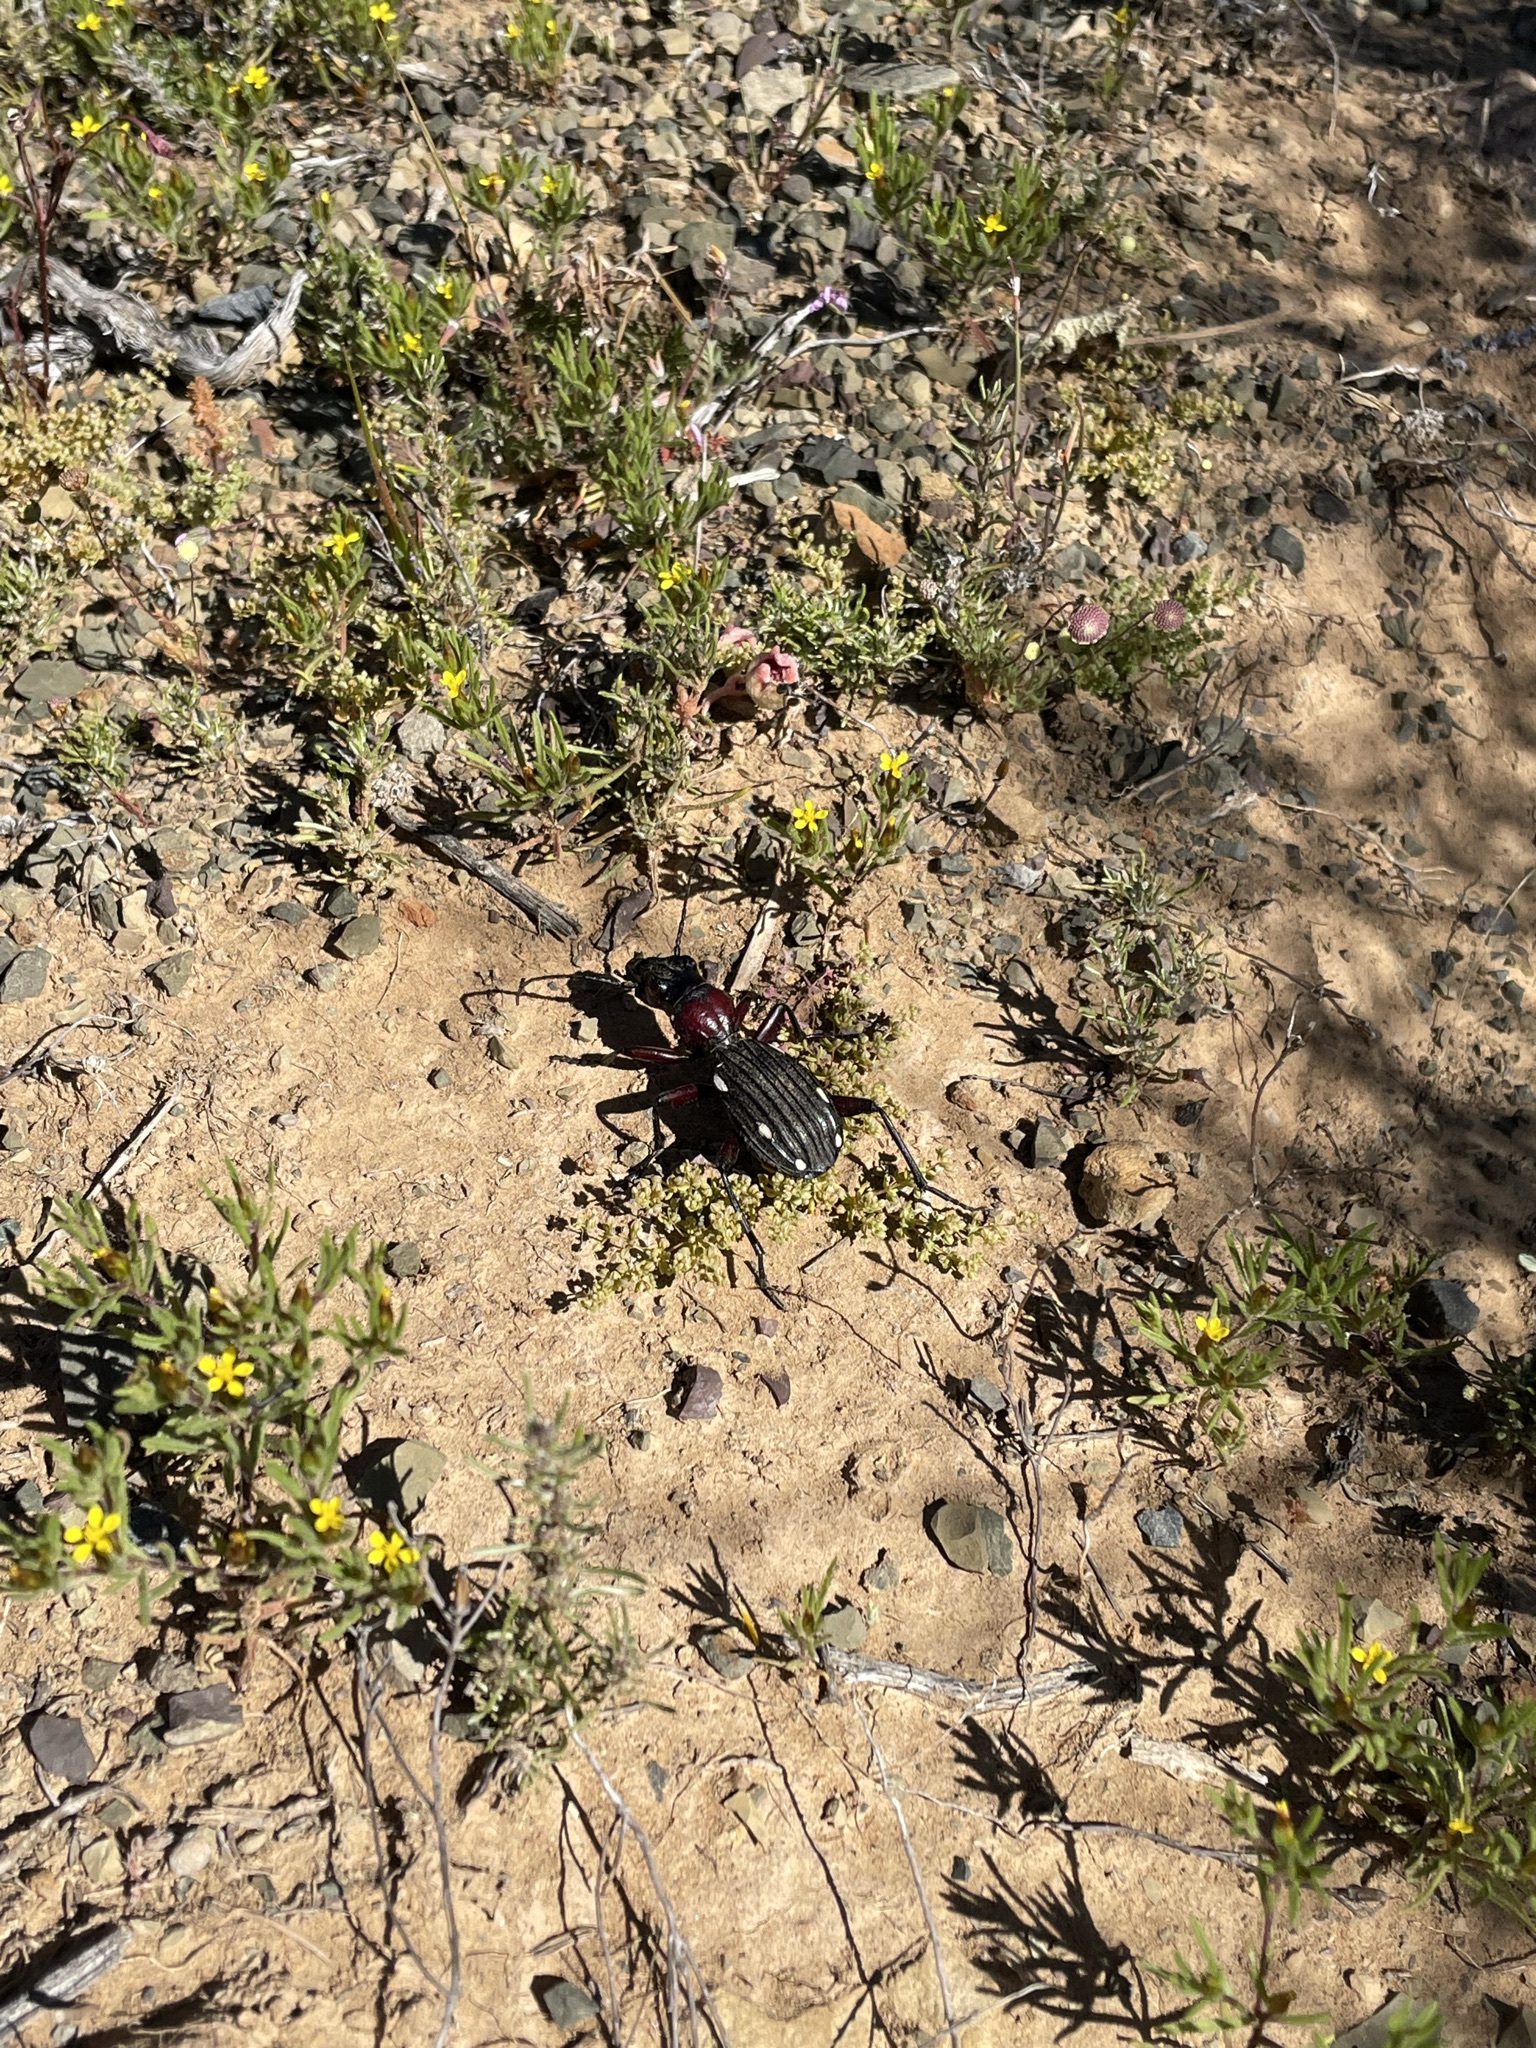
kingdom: Animalia
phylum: Arthropoda
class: Insecta
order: Coleoptera
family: Carabidae
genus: Anthia
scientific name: Anthia decemguttata
